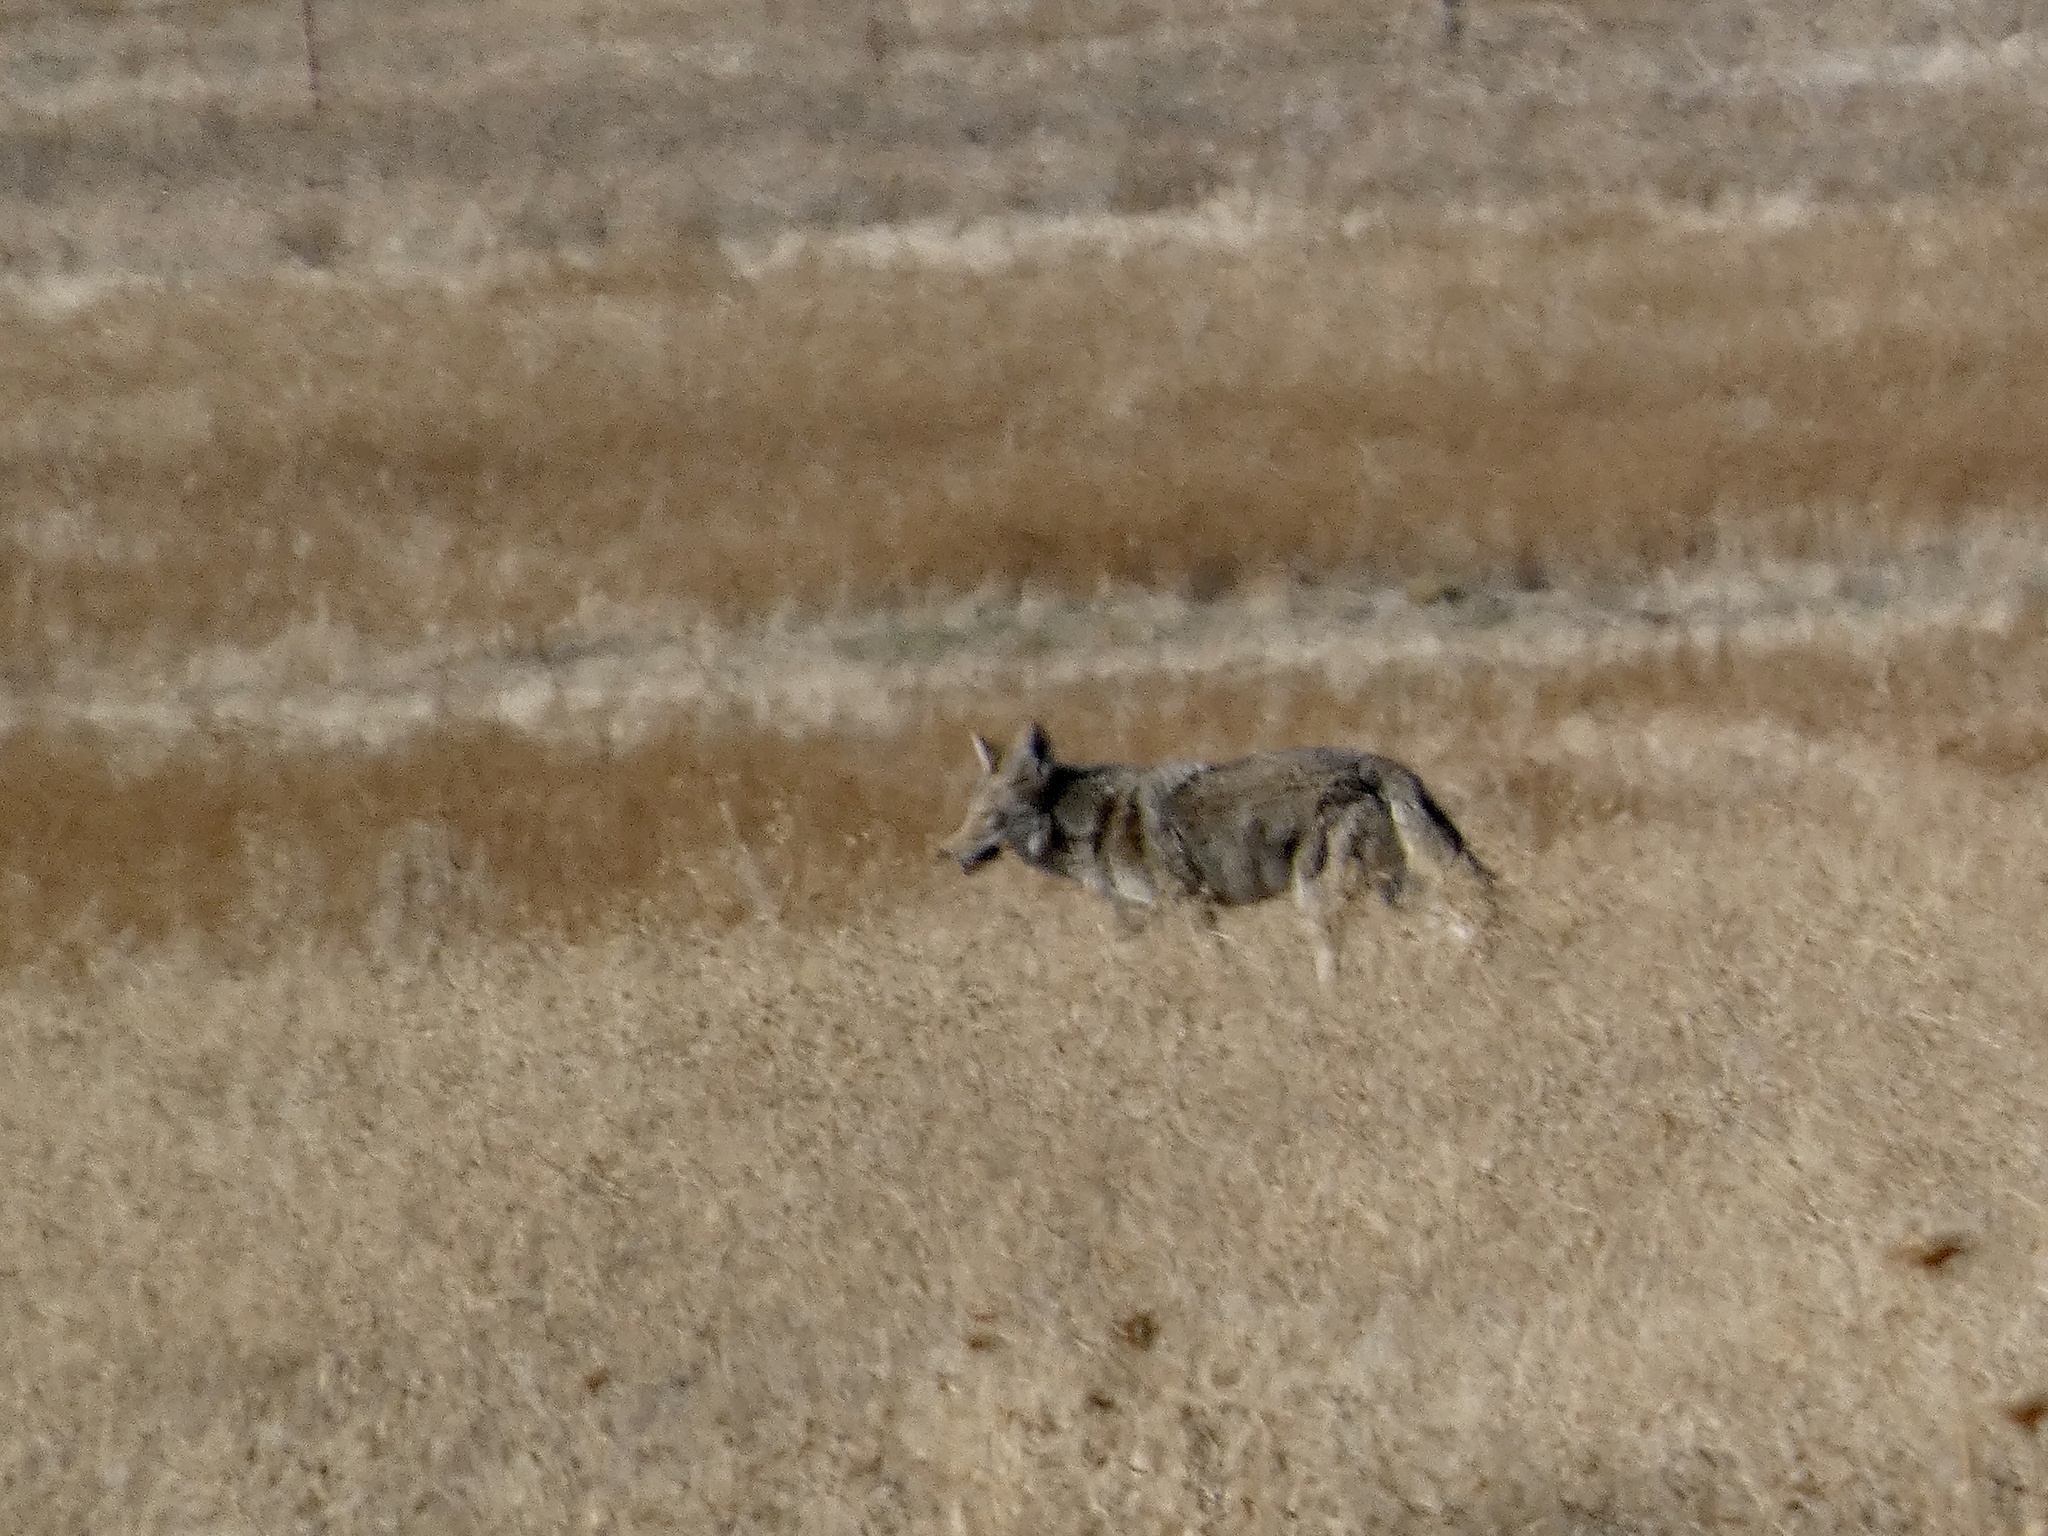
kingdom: Animalia
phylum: Chordata
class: Mammalia
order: Carnivora
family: Canidae
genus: Canis
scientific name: Canis latrans
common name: Coyote
